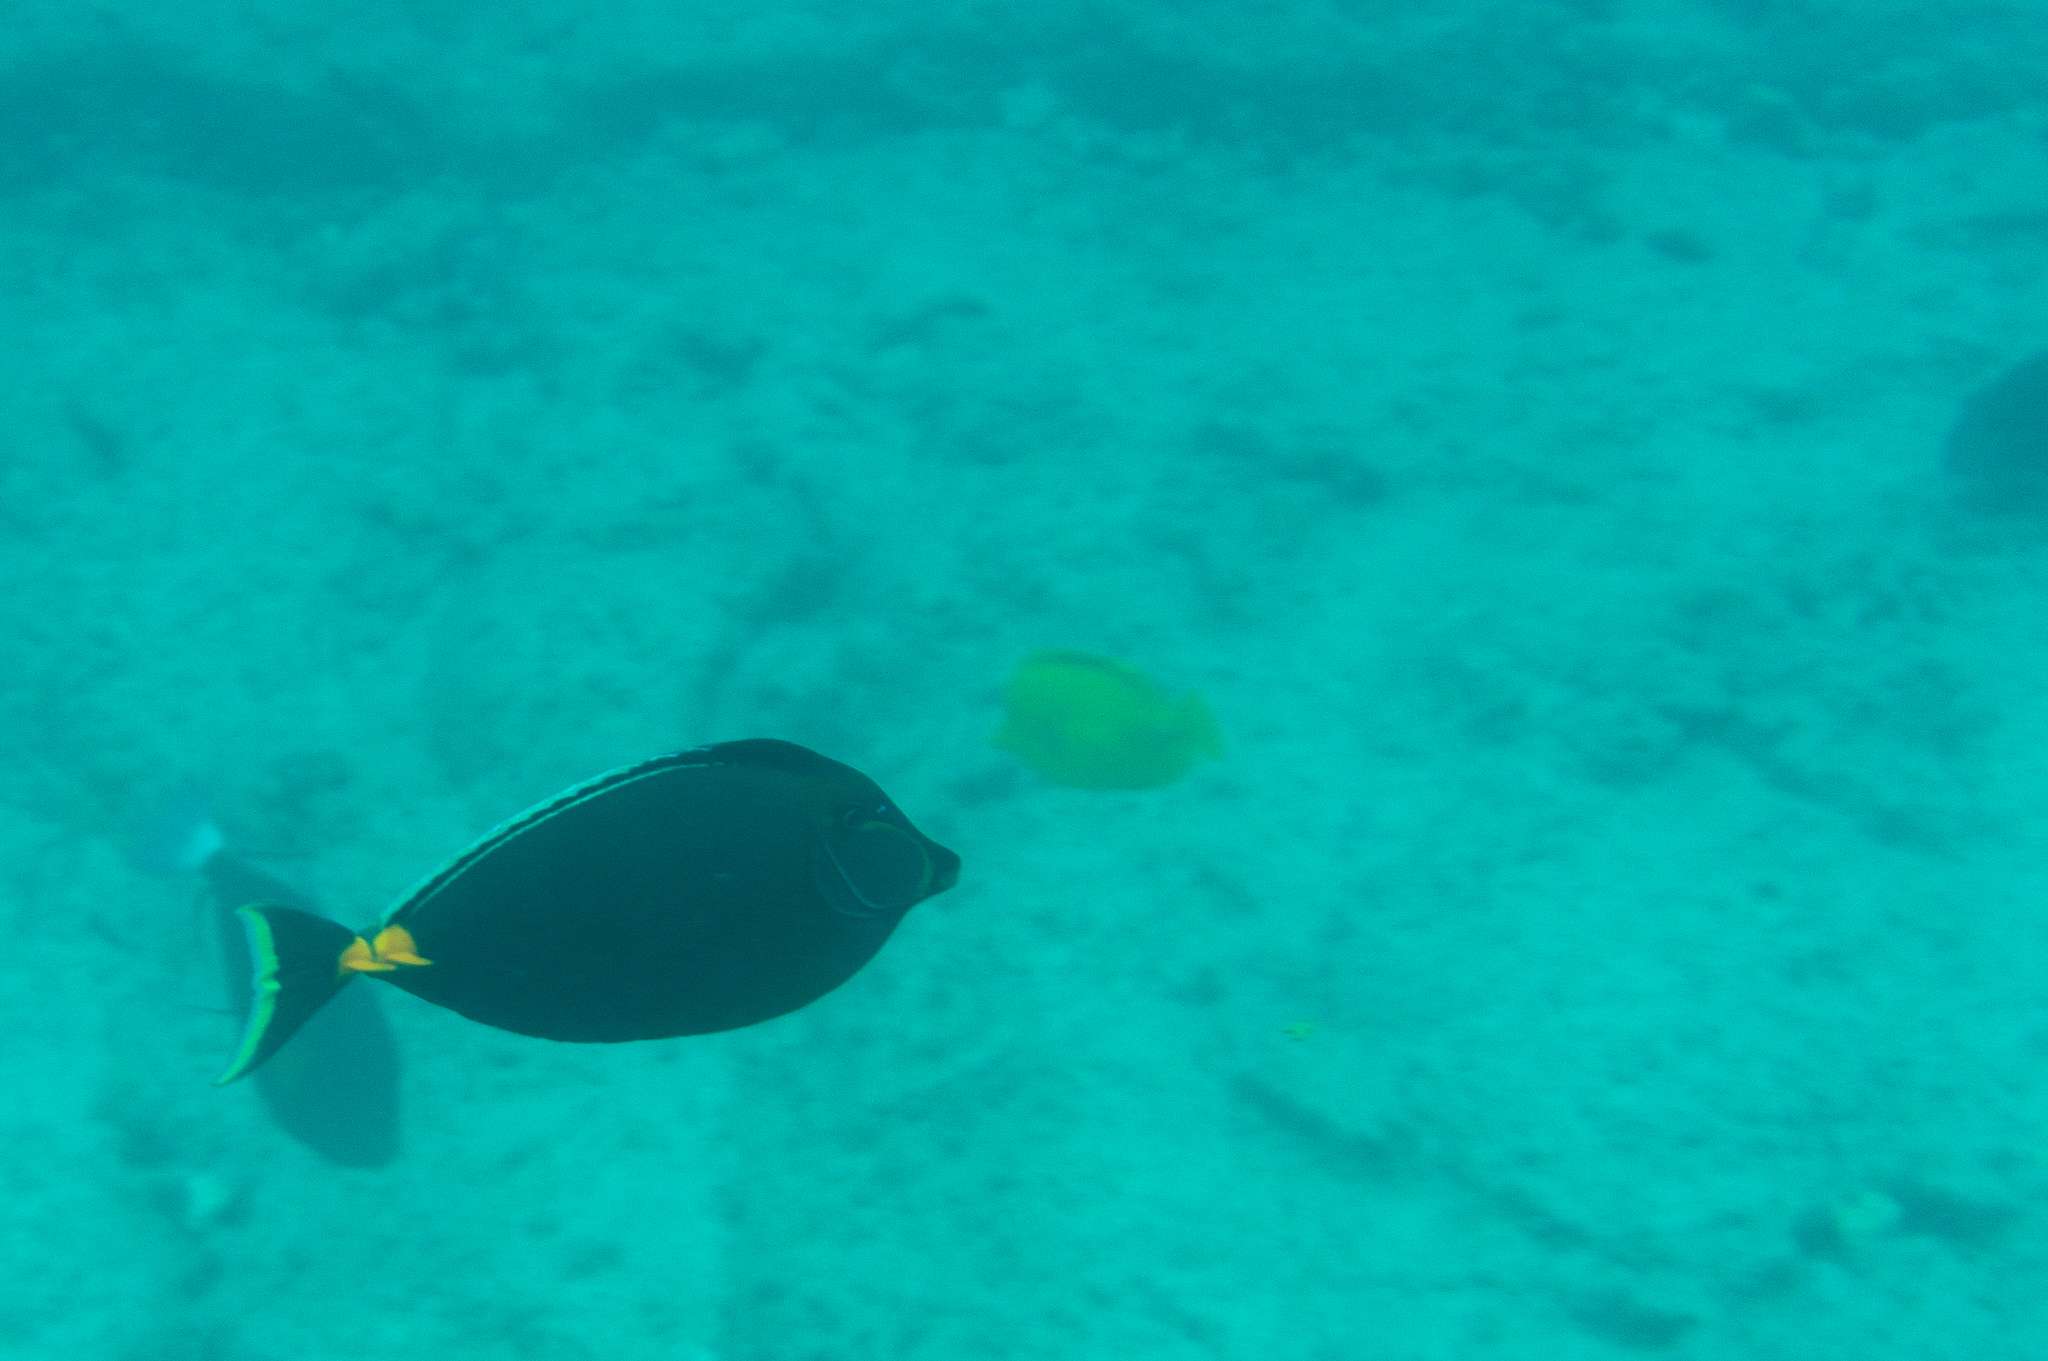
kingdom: Animalia
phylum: Chordata
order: Perciformes
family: Acanthuridae
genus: Naso
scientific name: Naso lituratus
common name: Orangespine unicornfish
